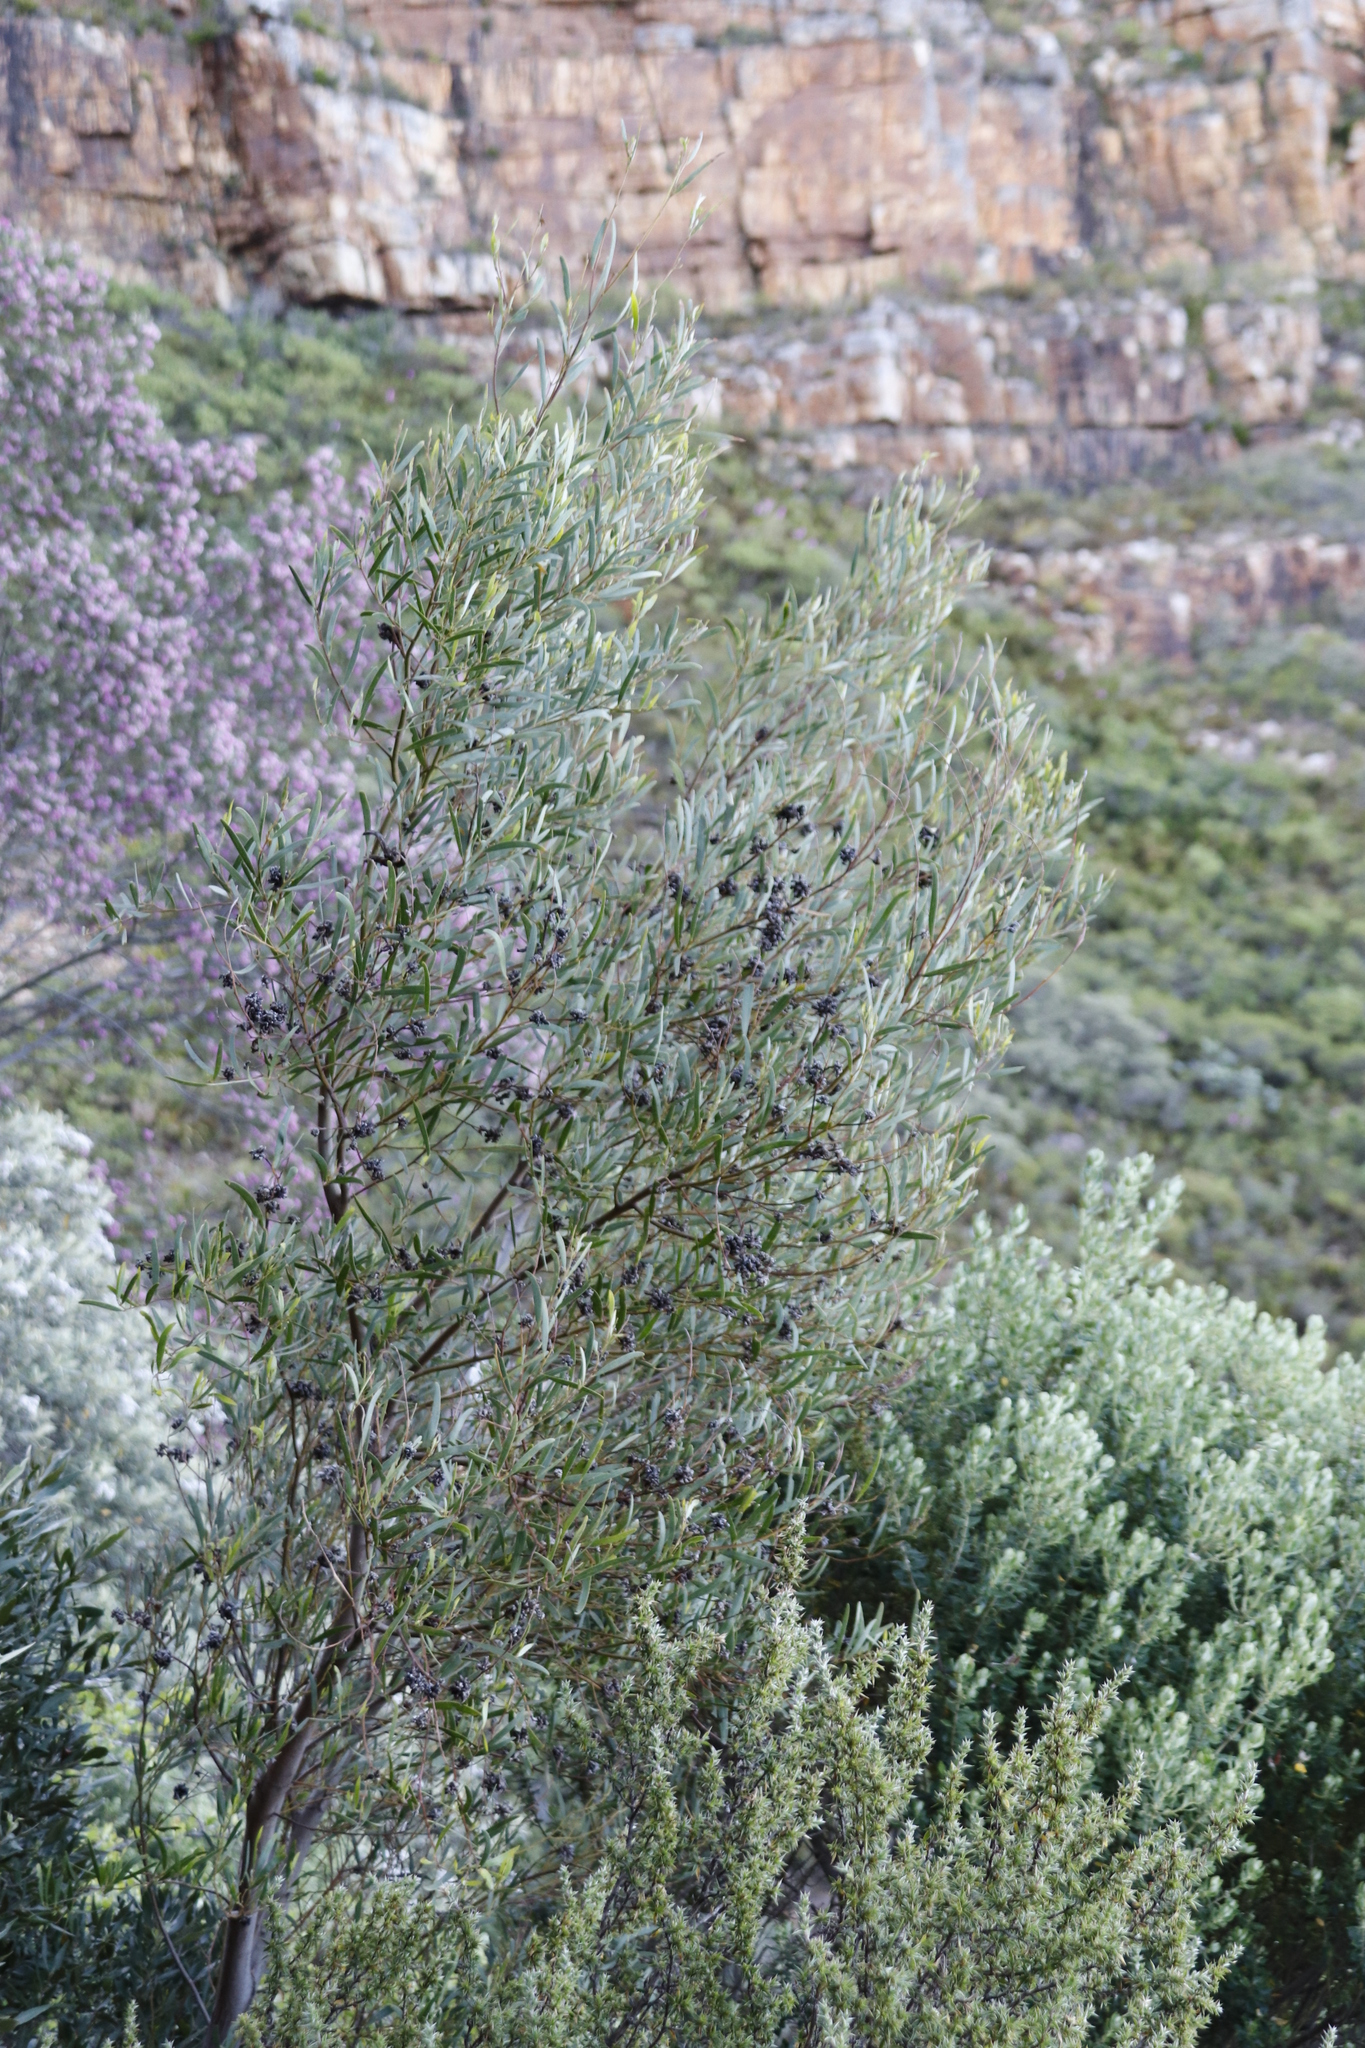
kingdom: Plantae
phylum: Tracheophyta
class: Magnoliopsida
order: Fabales
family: Fabaceae
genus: Acacia
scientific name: Acacia cyclops
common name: Coastal wattle
